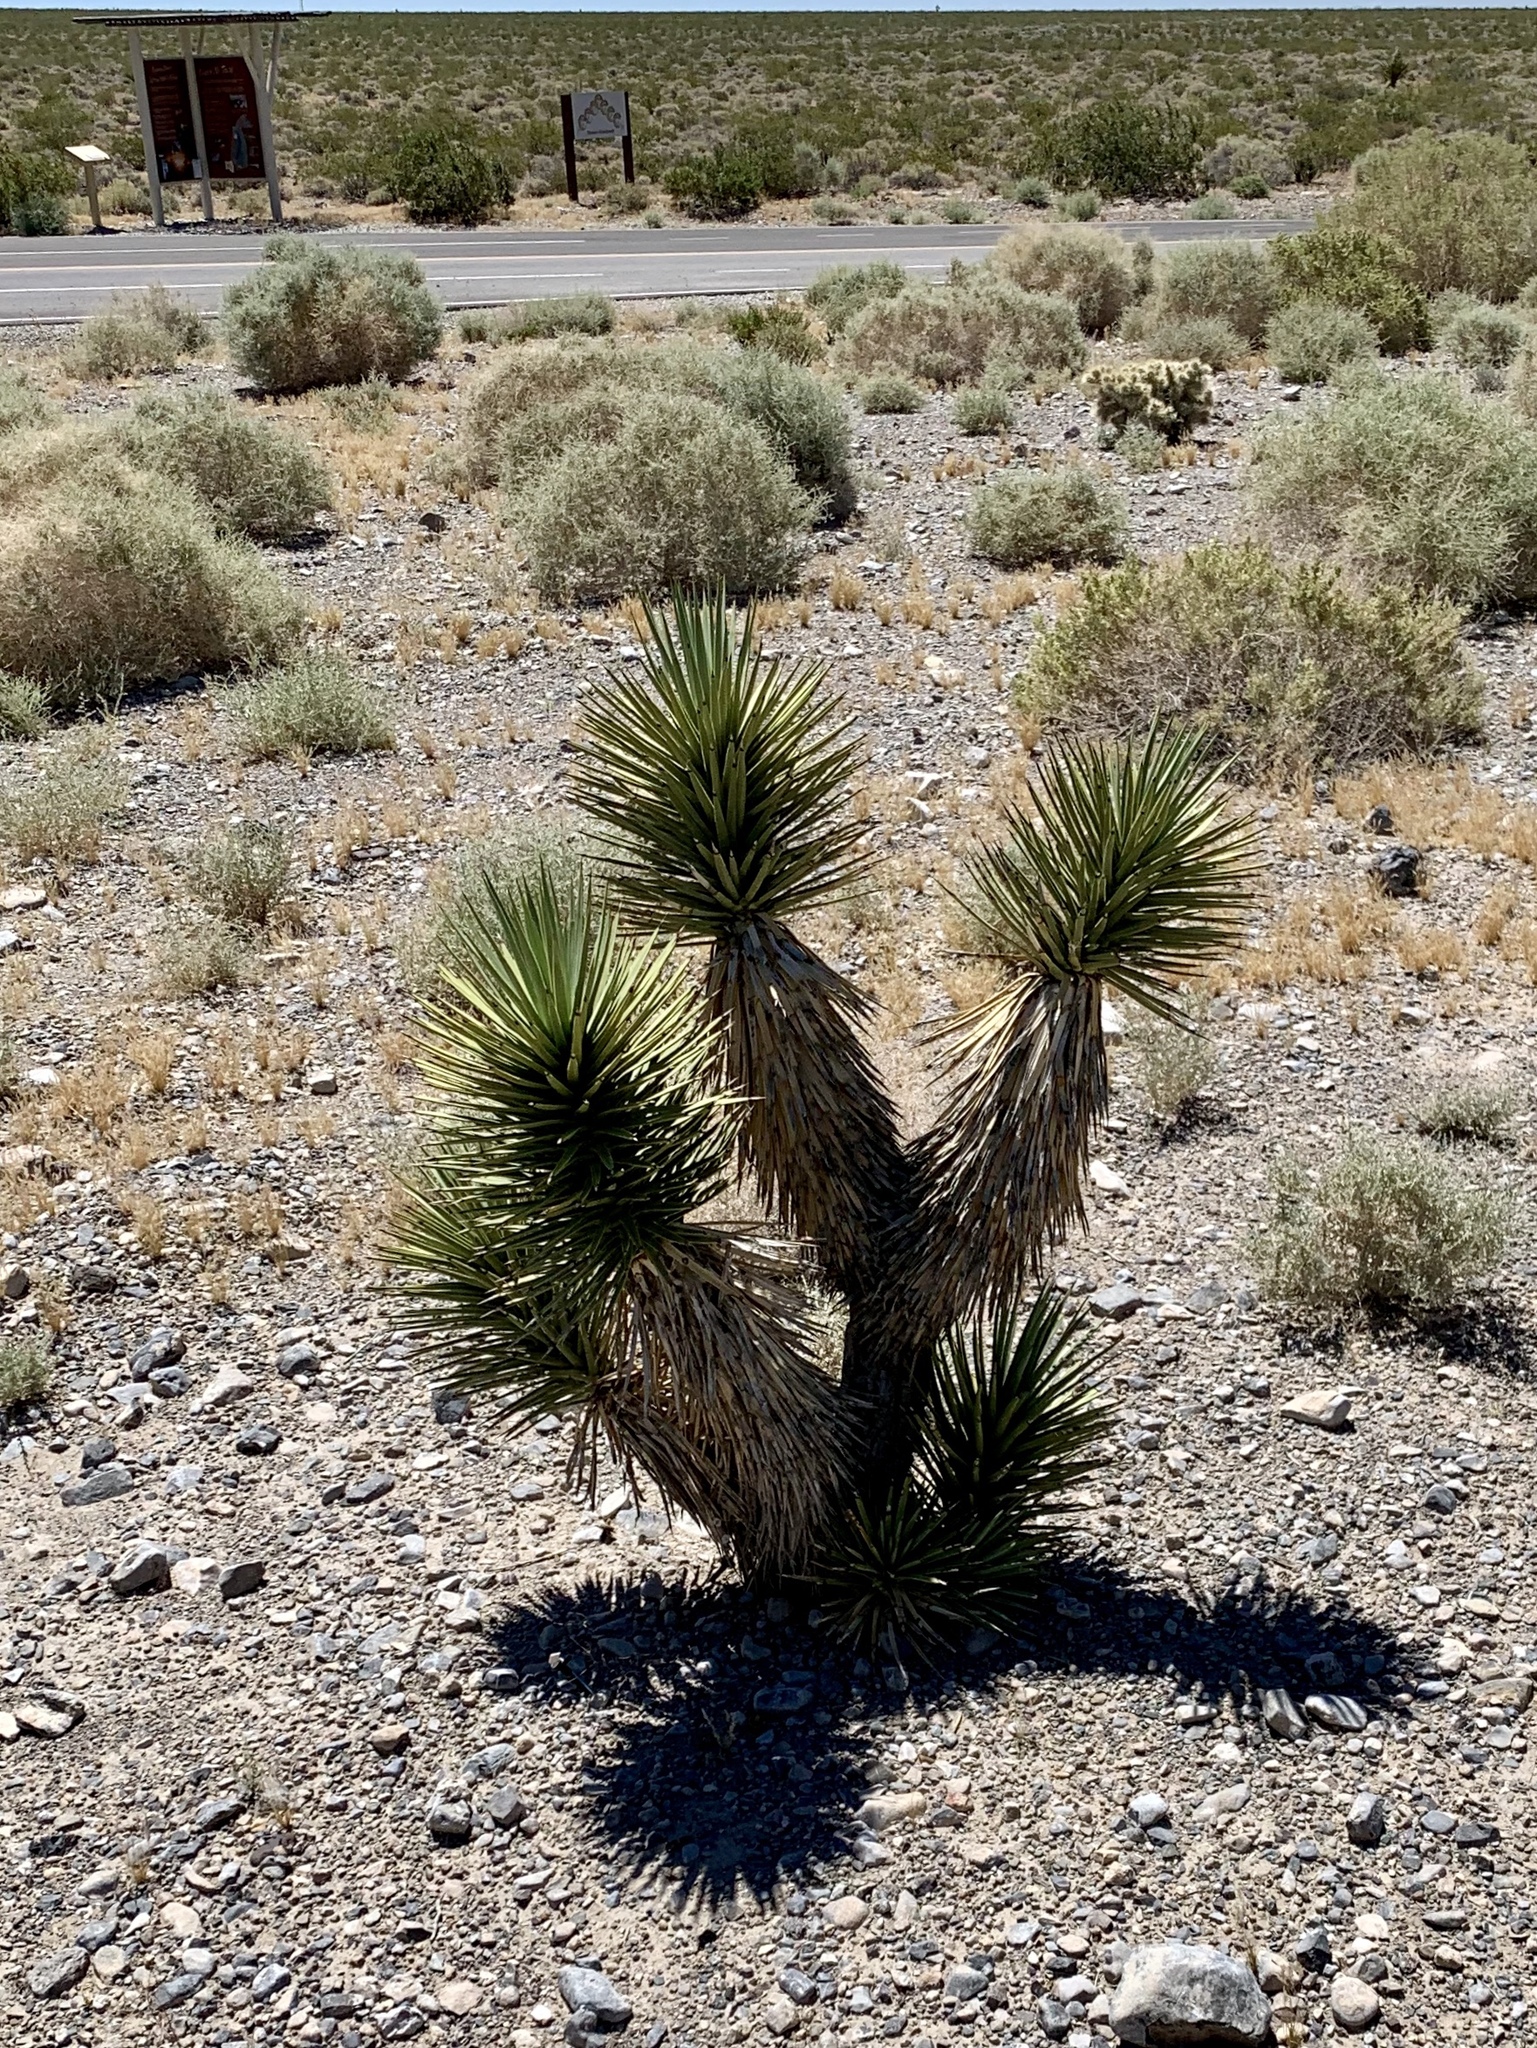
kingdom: Plantae
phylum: Tracheophyta
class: Liliopsida
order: Asparagales
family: Asparagaceae
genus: Yucca
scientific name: Yucca brevifolia
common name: Joshua tree
